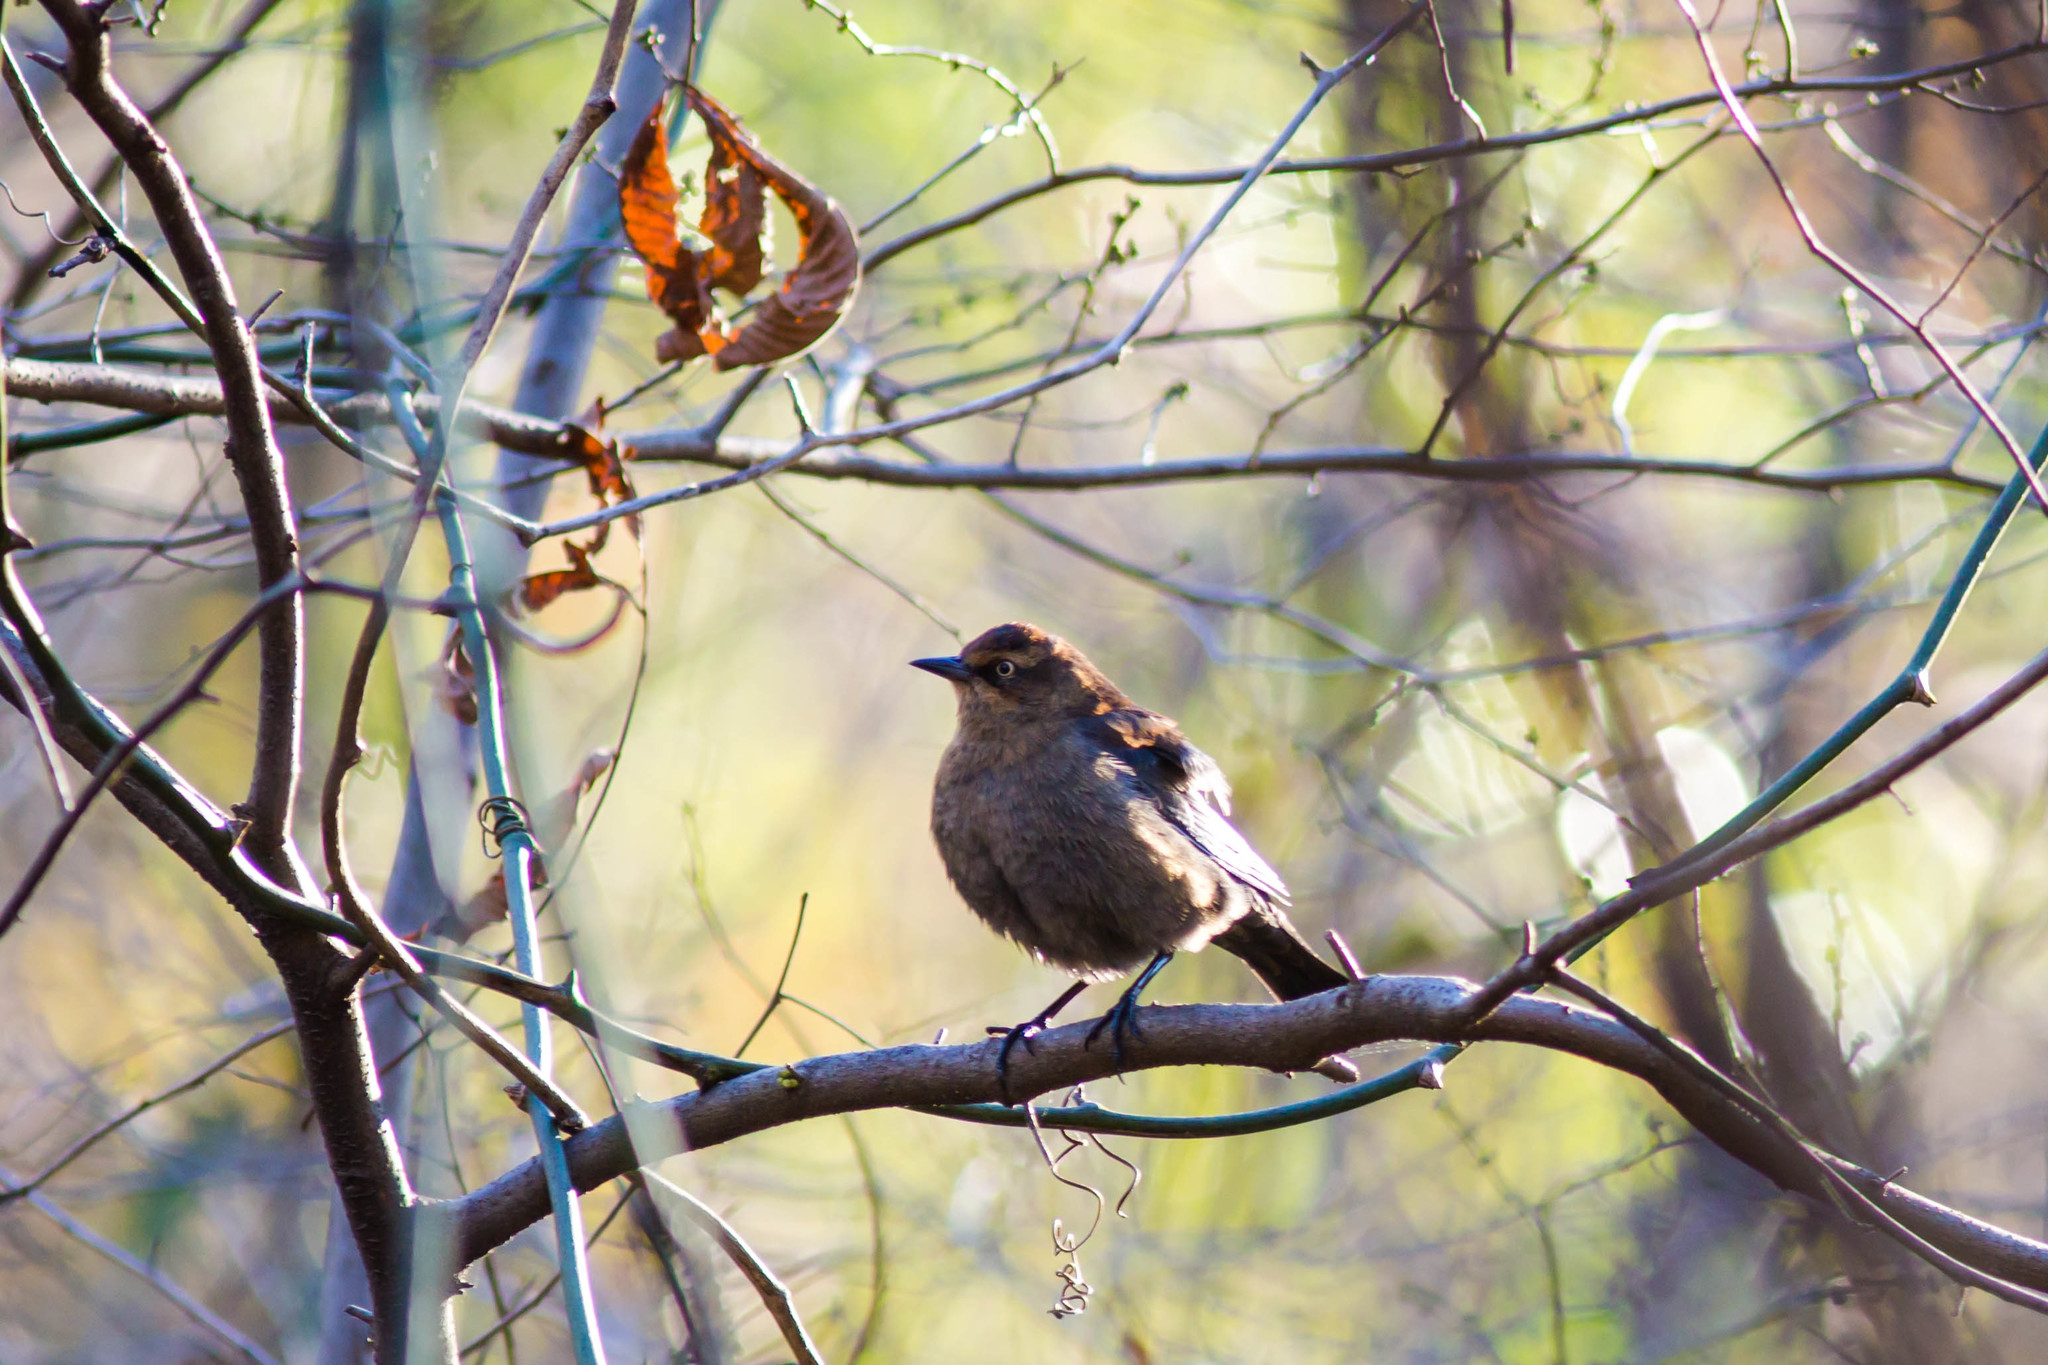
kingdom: Animalia
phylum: Chordata
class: Aves
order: Passeriformes
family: Icteridae
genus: Euphagus
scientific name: Euphagus carolinus
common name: Rusty blackbird
